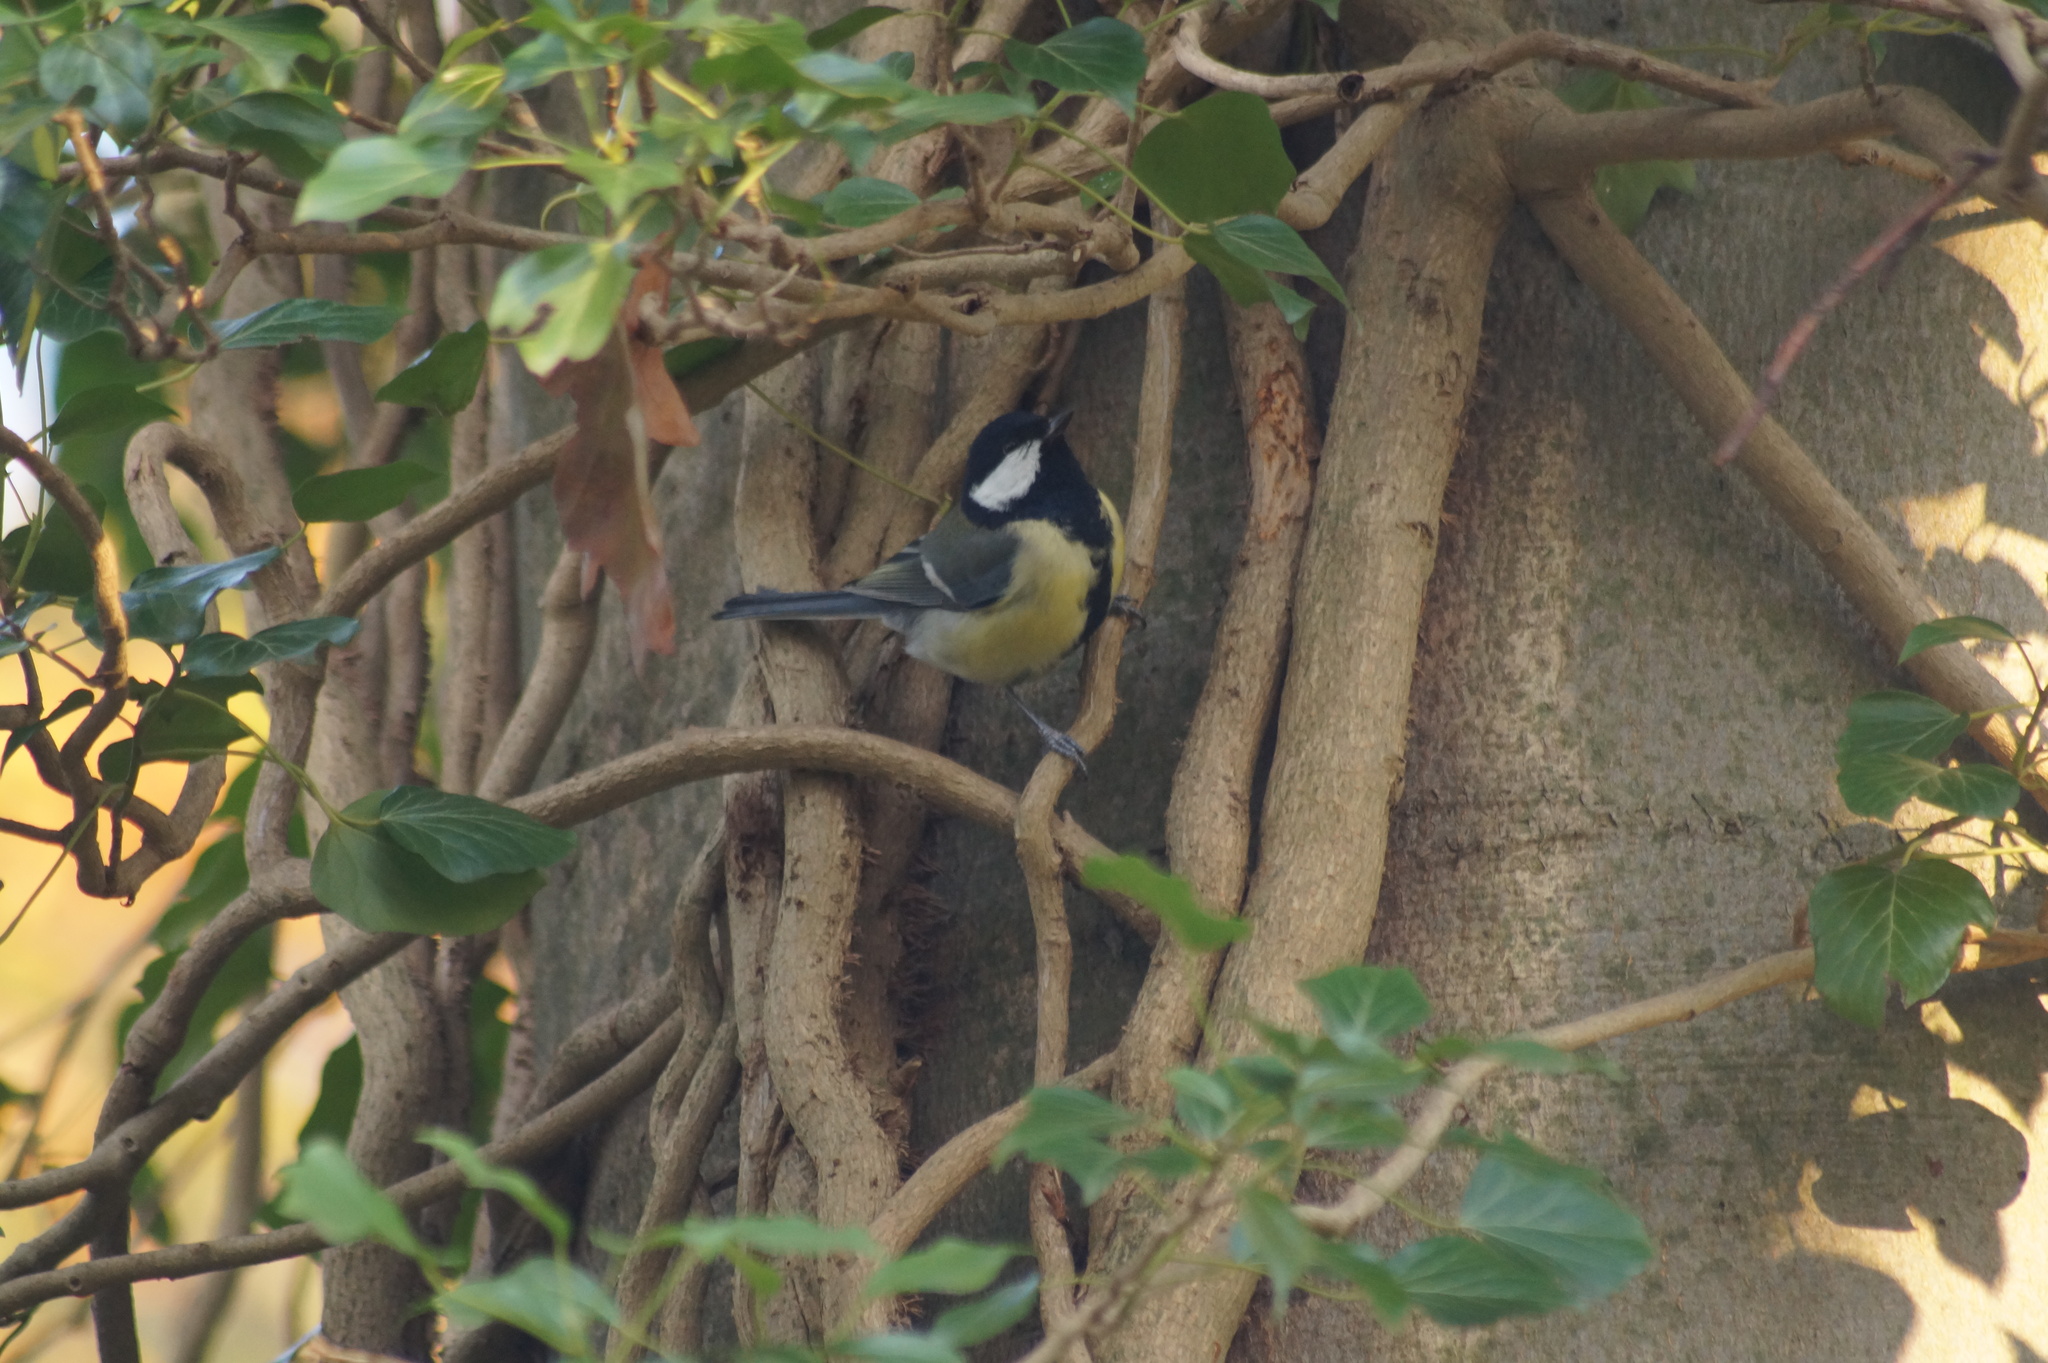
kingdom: Animalia
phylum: Chordata
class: Aves
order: Passeriformes
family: Paridae
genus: Parus
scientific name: Parus major
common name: Great tit
